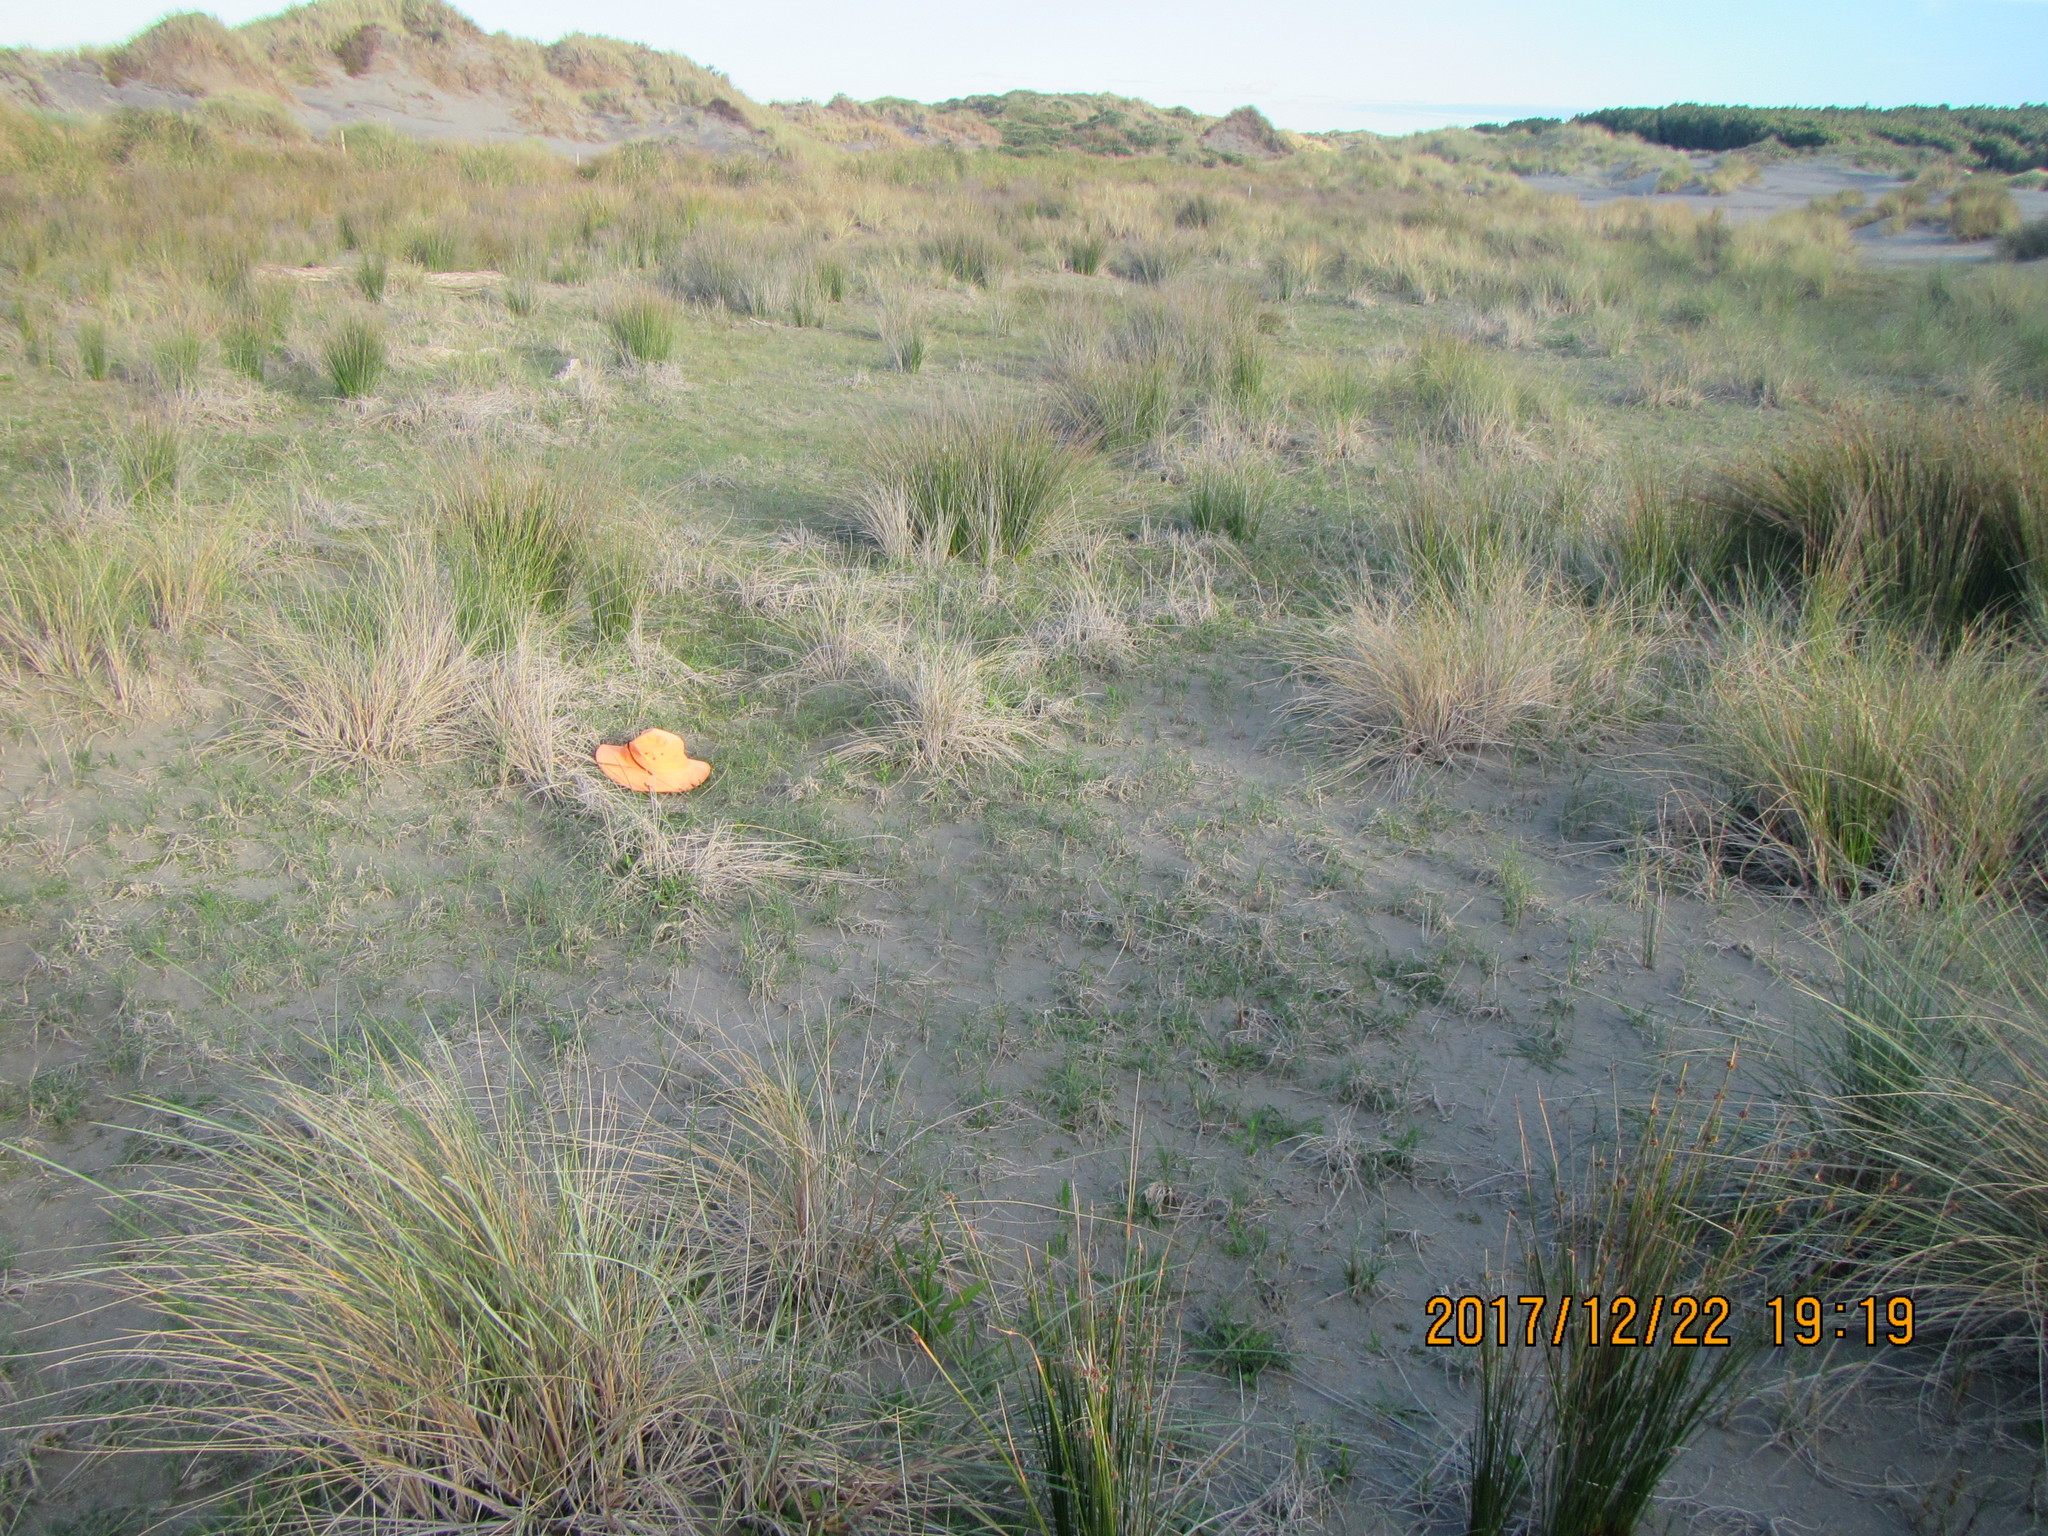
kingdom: Plantae
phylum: Tracheophyta
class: Magnoliopsida
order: Asterales
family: Campanulaceae
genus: Lobelia
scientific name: Lobelia anceps
